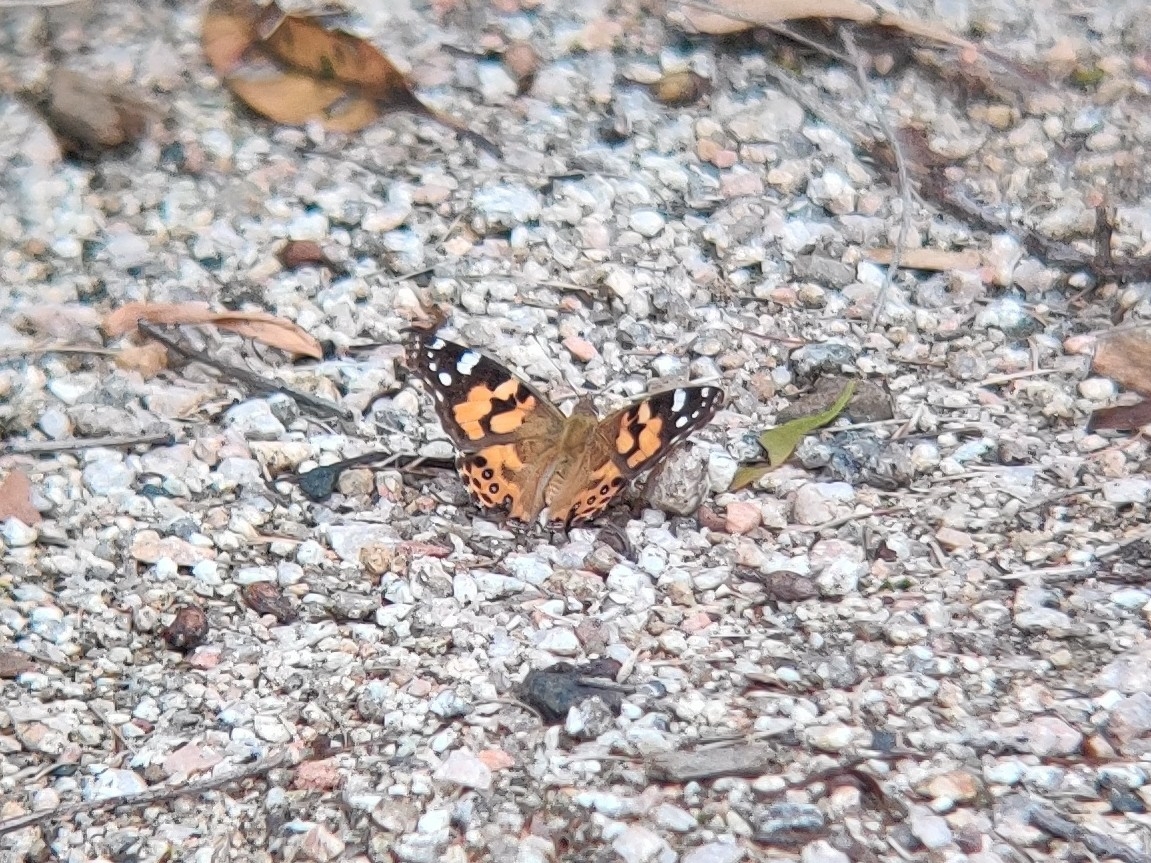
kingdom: Animalia
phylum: Arthropoda
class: Insecta
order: Lepidoptera
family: Nymphalidae
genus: Vanessa
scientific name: Vanessa kershawi
